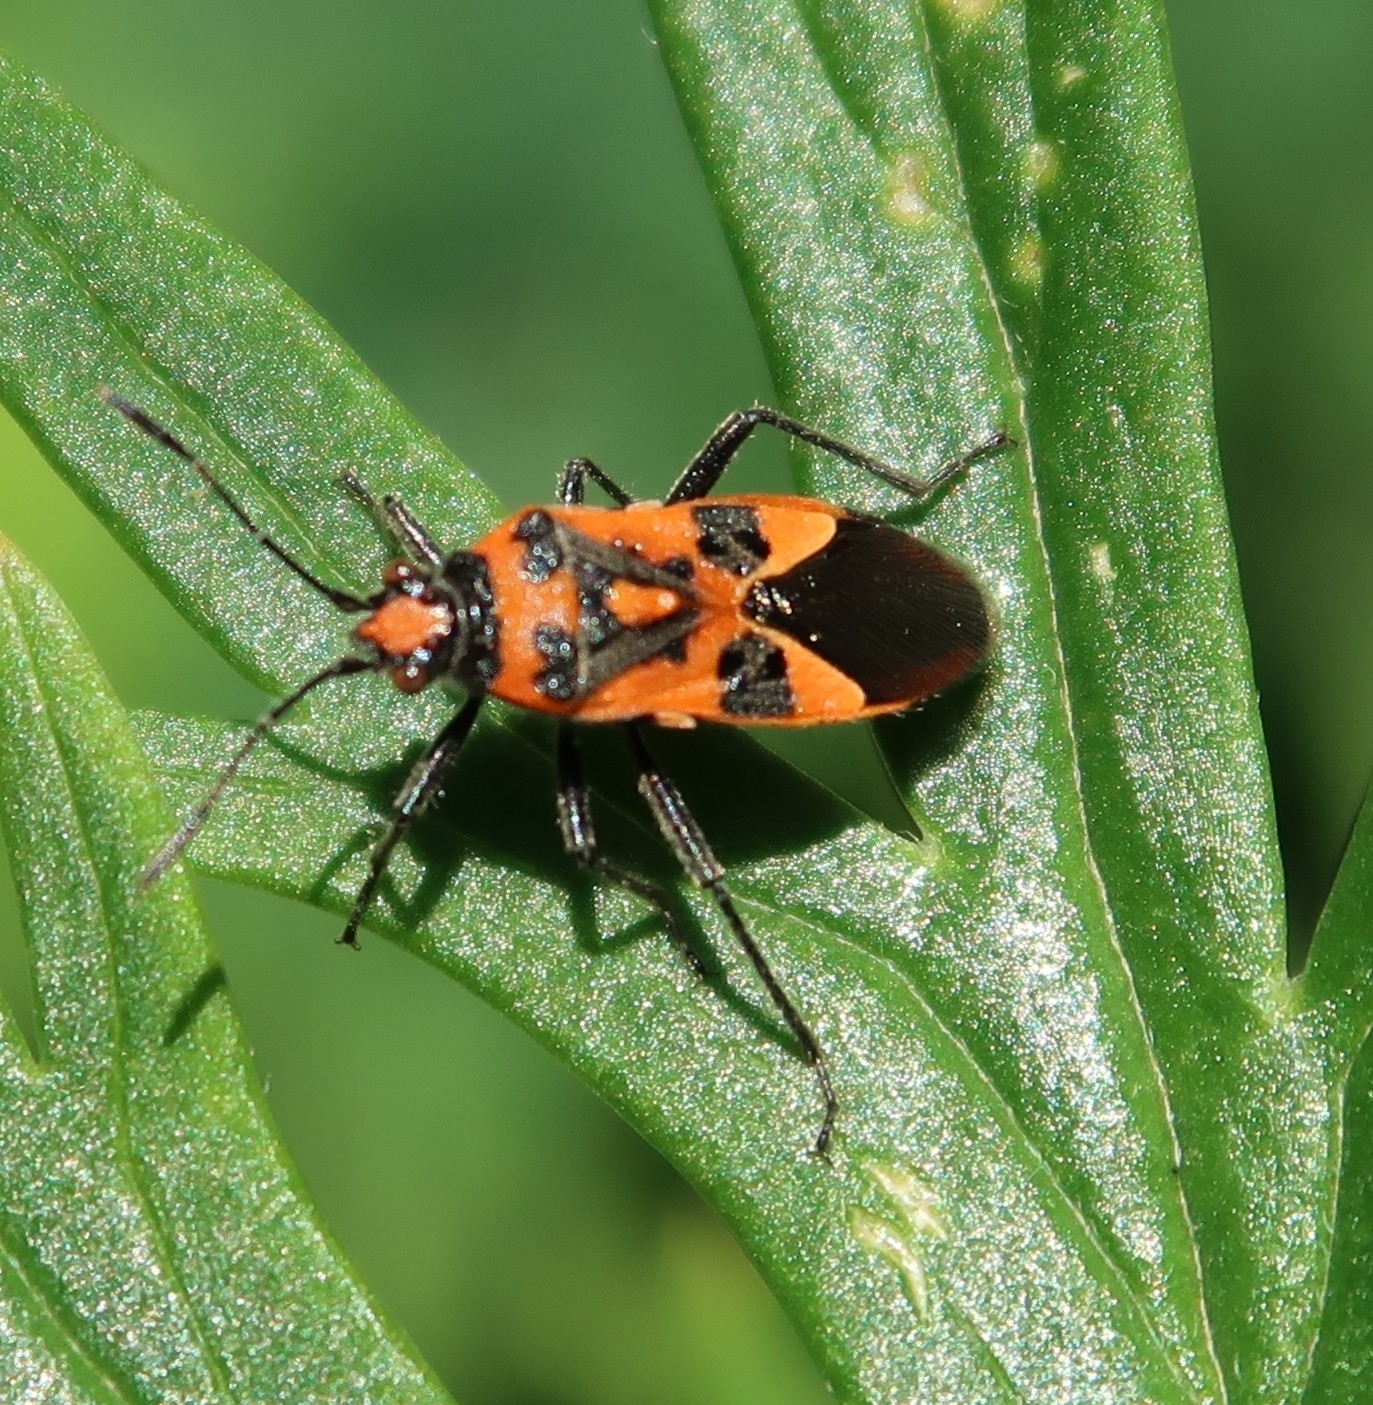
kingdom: Animalia
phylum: Arthropoda
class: Insecta
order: Hemiptera
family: Rhopalidae
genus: Corizus
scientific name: Corizus hyoscyami
